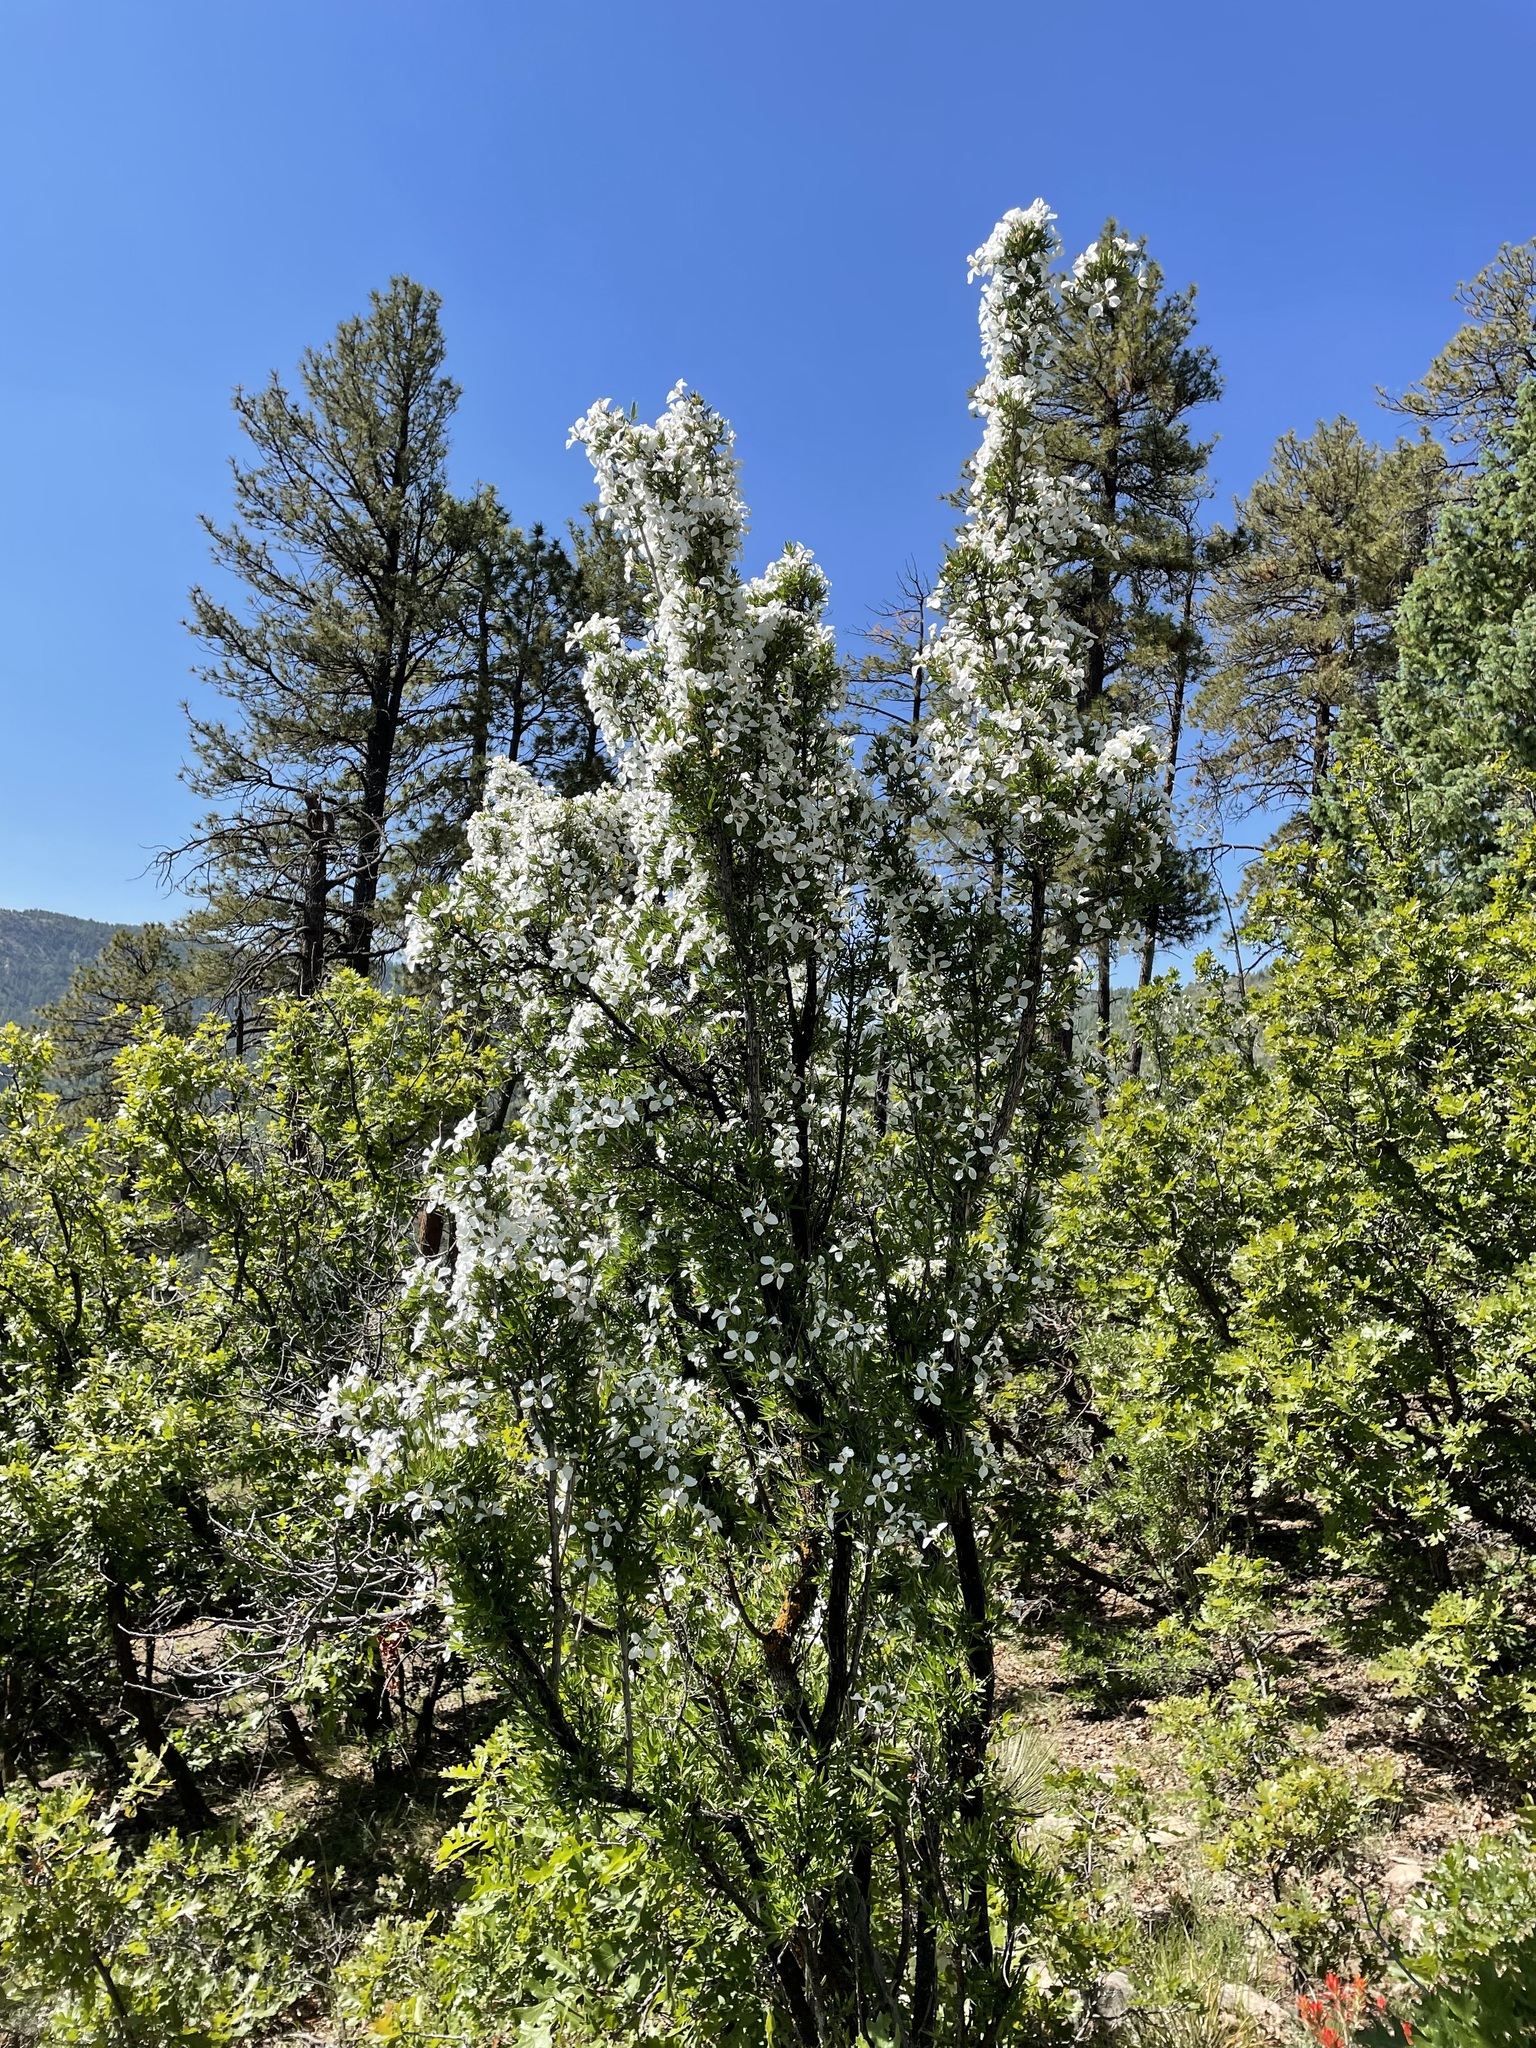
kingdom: Plantae
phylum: Tracheophyta
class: Magnoliopsida
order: Cornales
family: Hydrangeaceae
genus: Fendlera
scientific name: Fendlera rupicola
